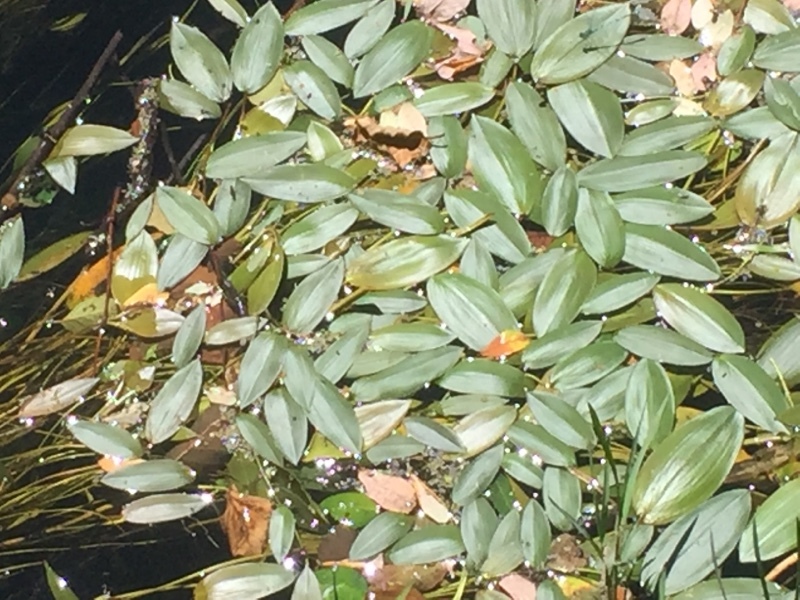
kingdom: Plantae
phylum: Tracheophyta
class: Liliopsida
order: Alismatales
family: Potamogetonaceae
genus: Potamogeton
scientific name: Potamogeton natans
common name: Broad-leaved pondweed
